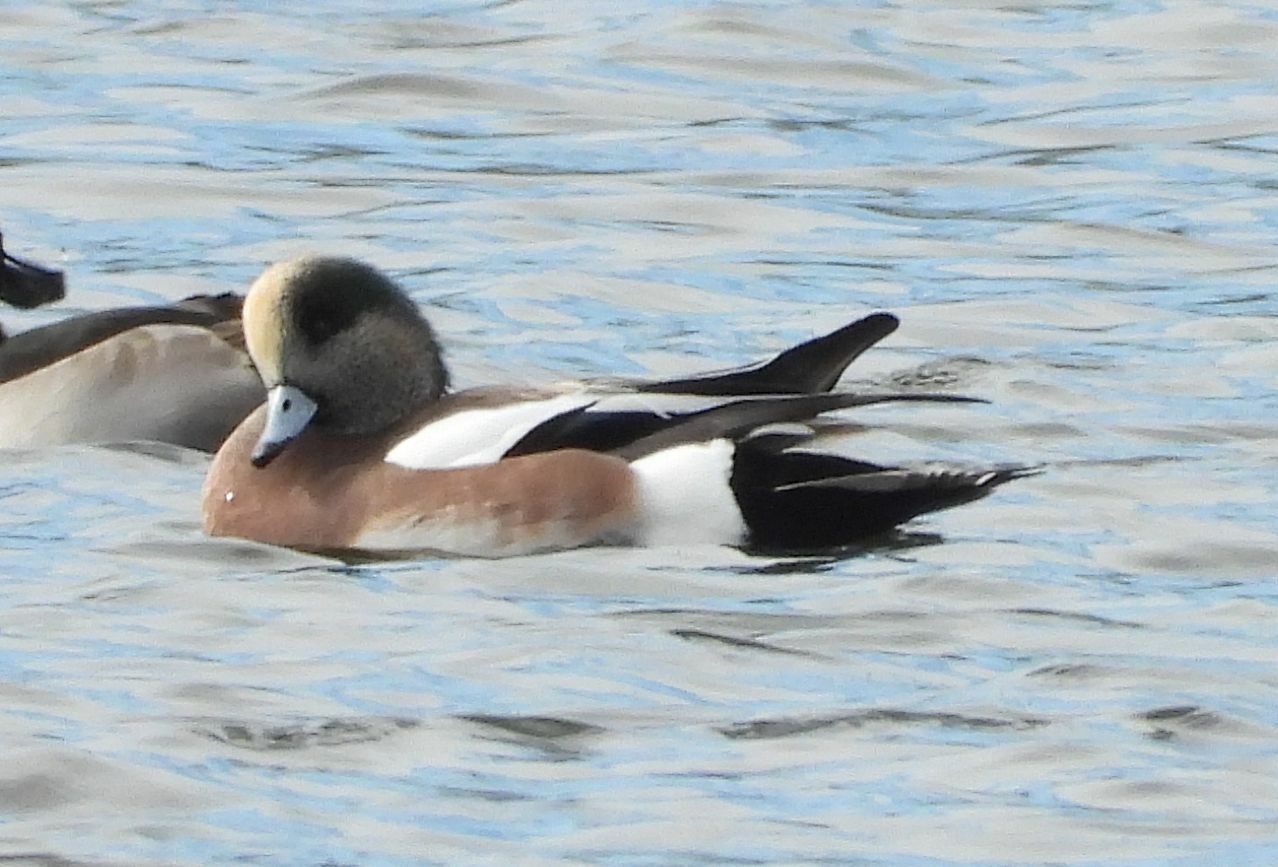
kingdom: Animalia
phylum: Chordata
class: Aves
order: Anseriformes
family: Anatidae
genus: Mareca
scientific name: Mareca americana
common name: American wigeon
